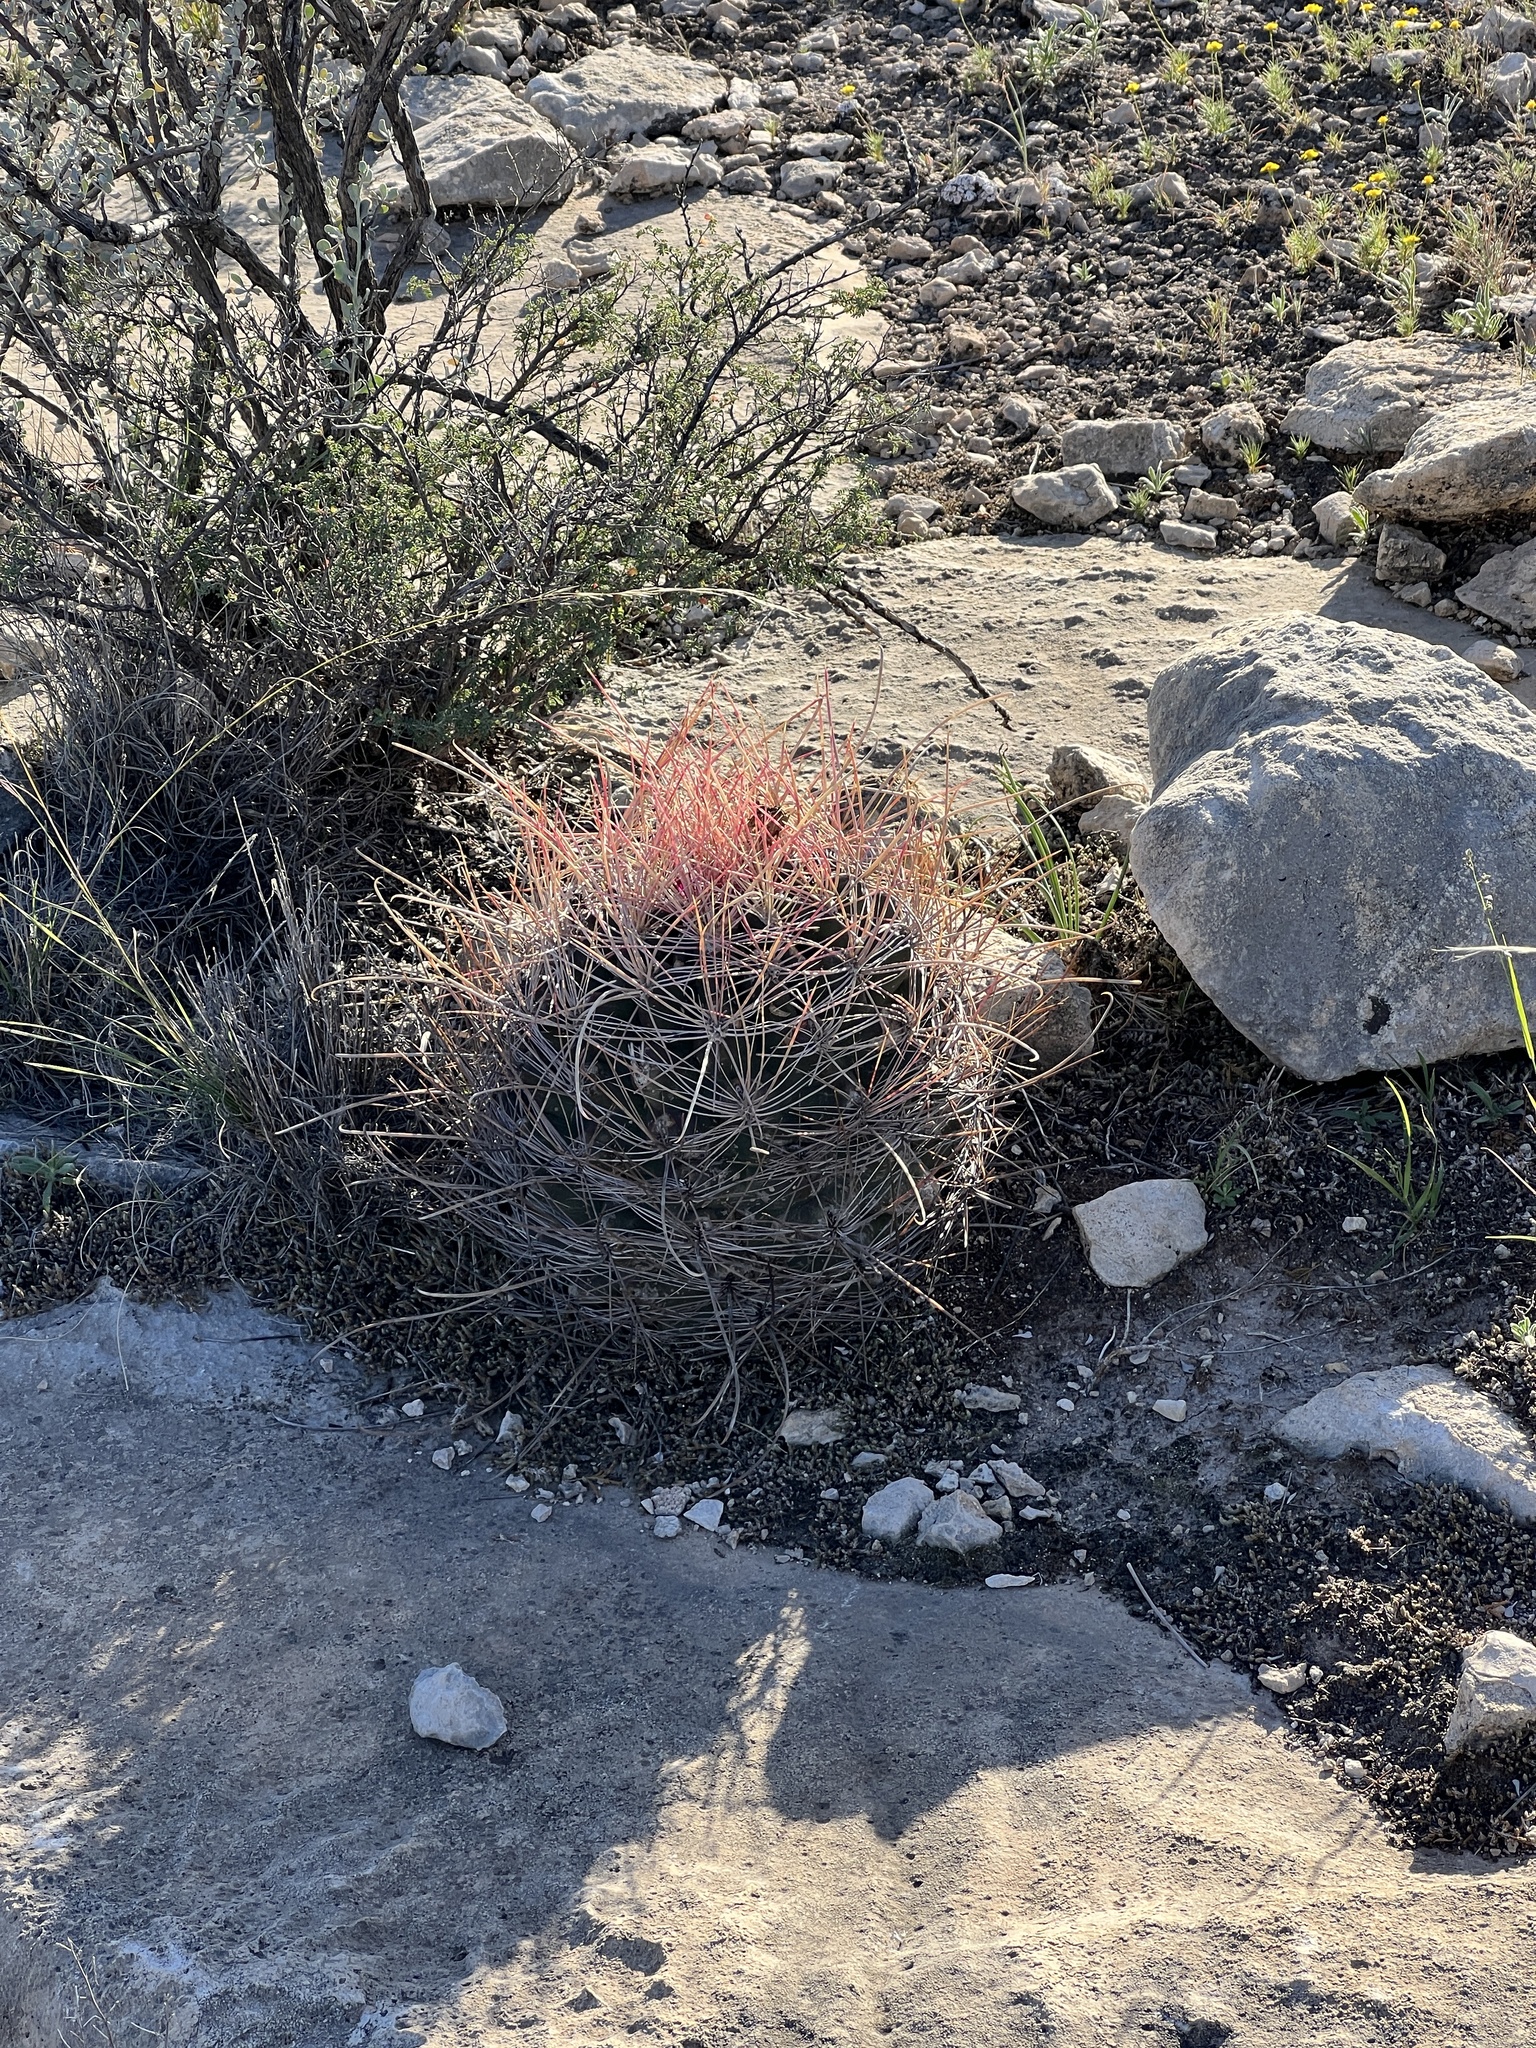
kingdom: Plantae
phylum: Tracheophyta
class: Magnoliopsida
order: Caryophyllales
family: Cactaceae
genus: Bisnaga
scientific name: Bisnaga hamatacantha
